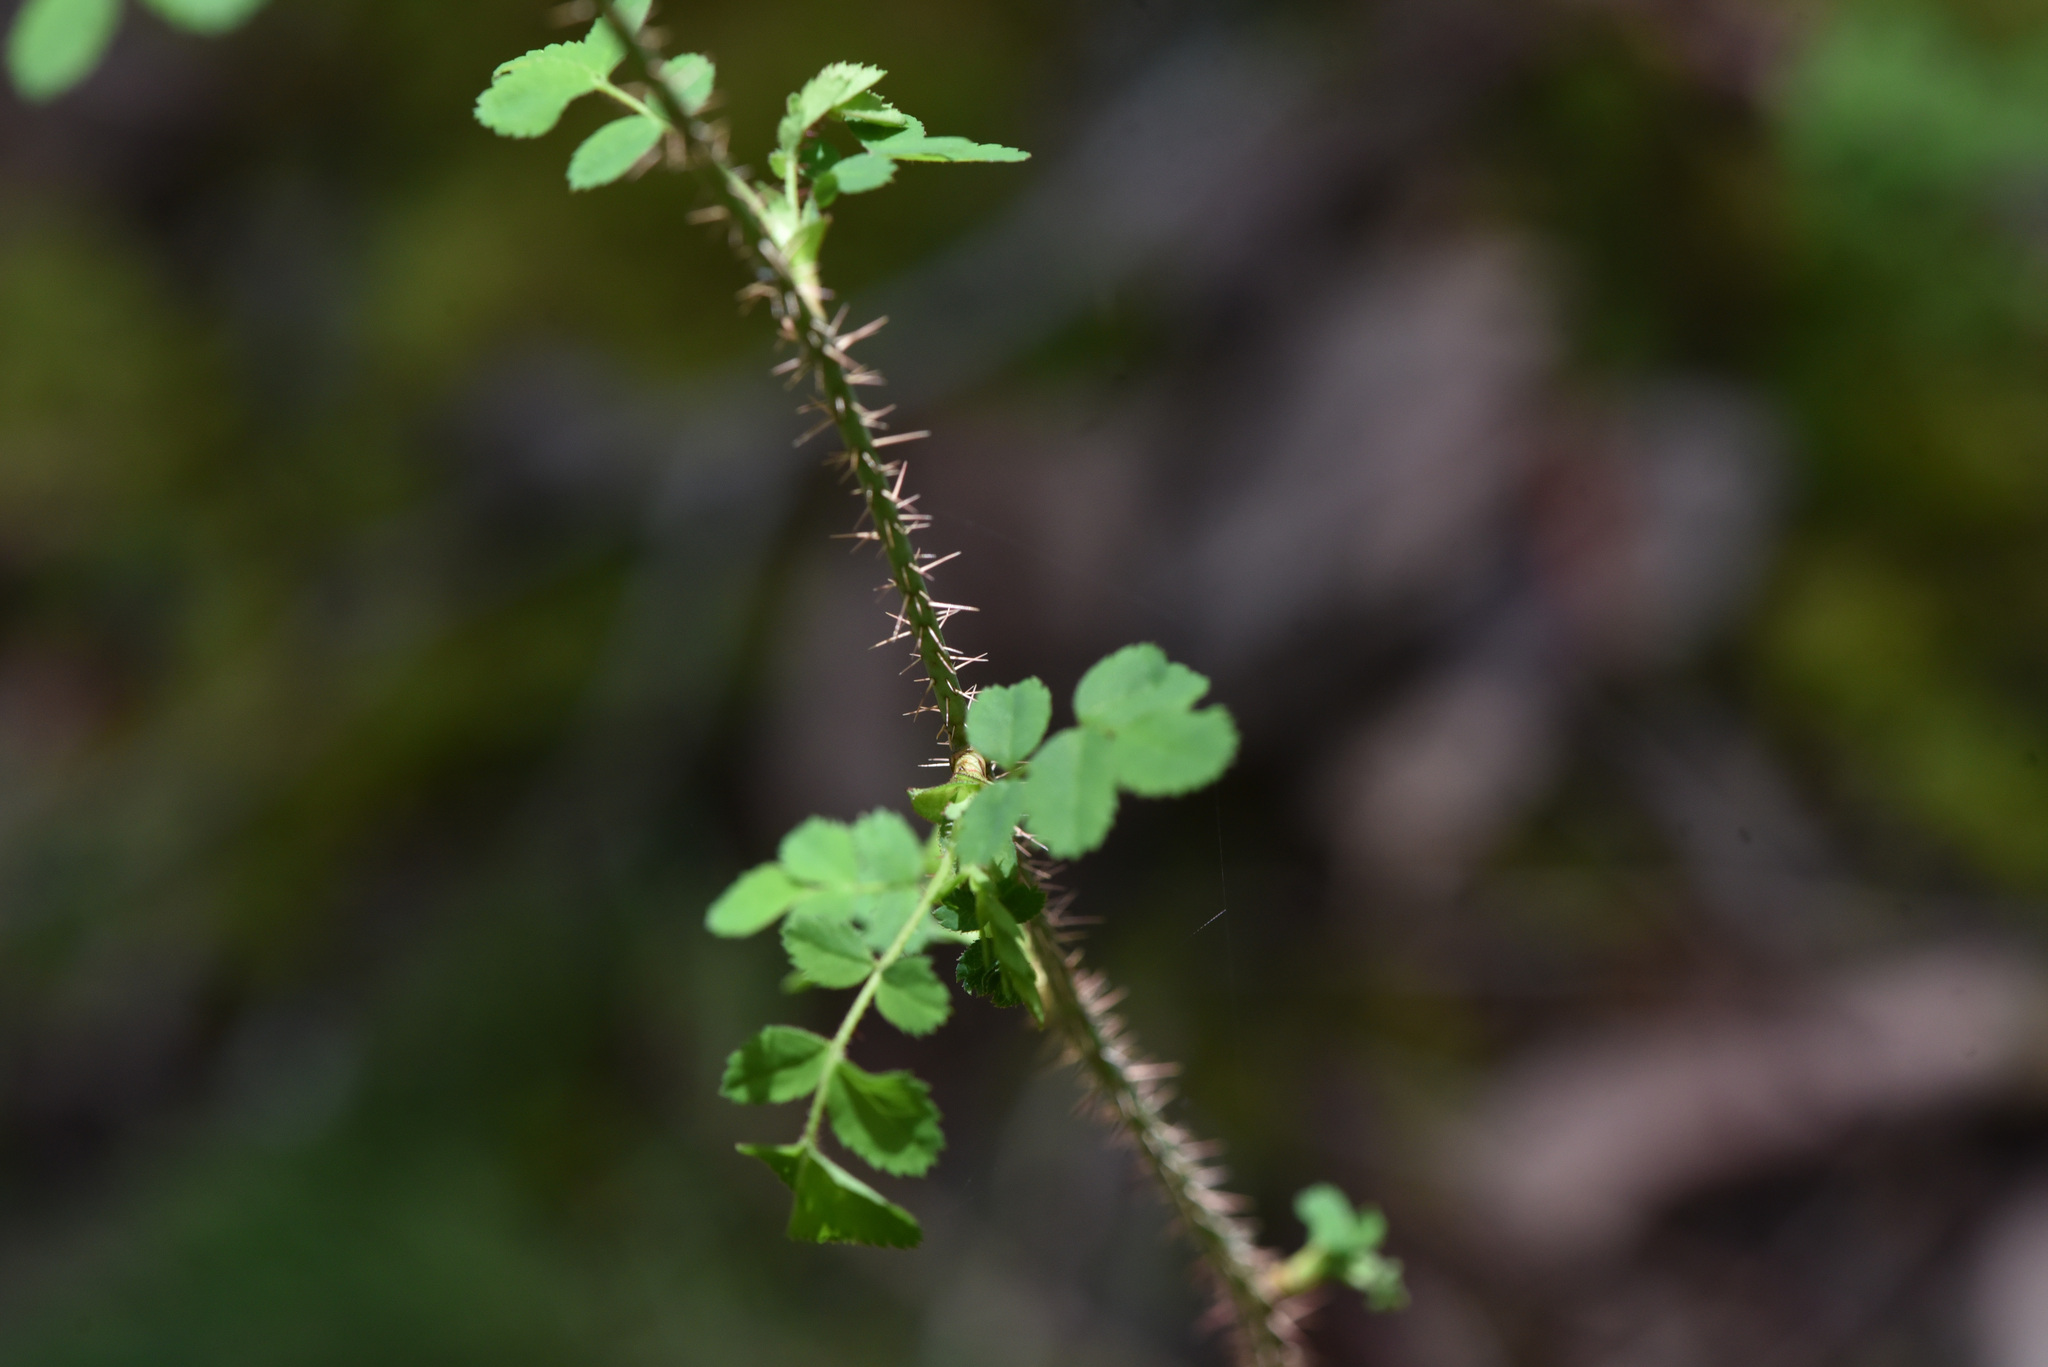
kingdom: Plantae
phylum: Tracheophyta
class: Magnoliopsida
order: Rosales
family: Rosaceae
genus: Rosa
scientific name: Rosa gymnocarpa
